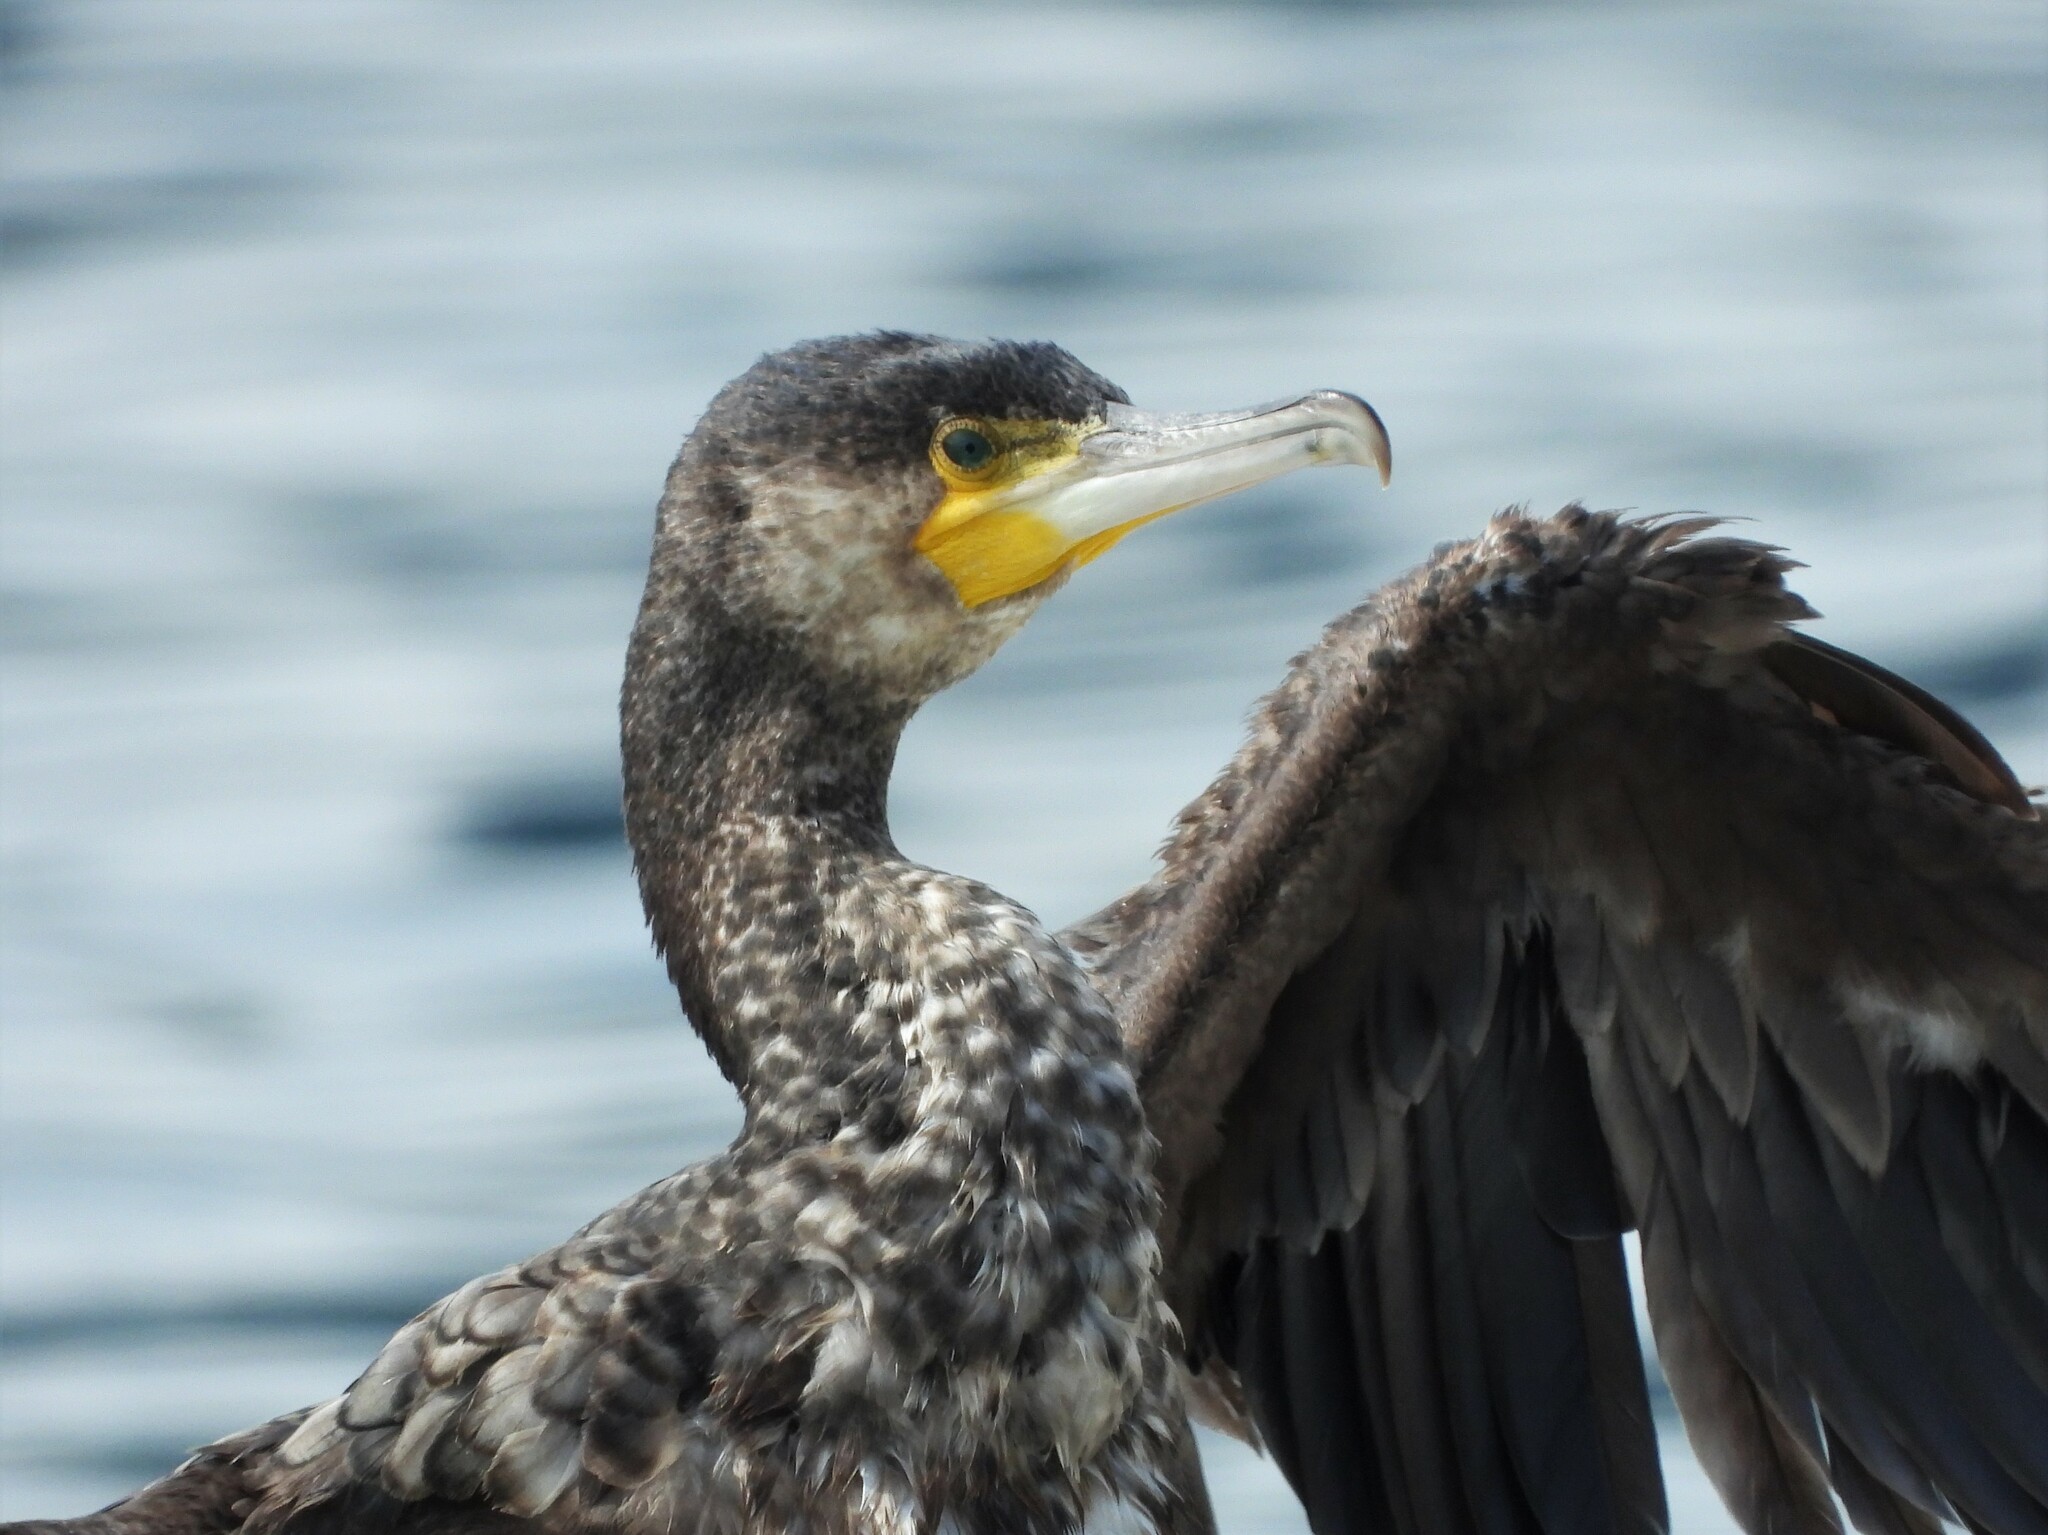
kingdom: Animalia
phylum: Chordata
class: Aves
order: Suliformes
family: Phalacrocoracidae
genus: Phalacrocorax
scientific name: Phalacrocorax carbo
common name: Great cormorant
